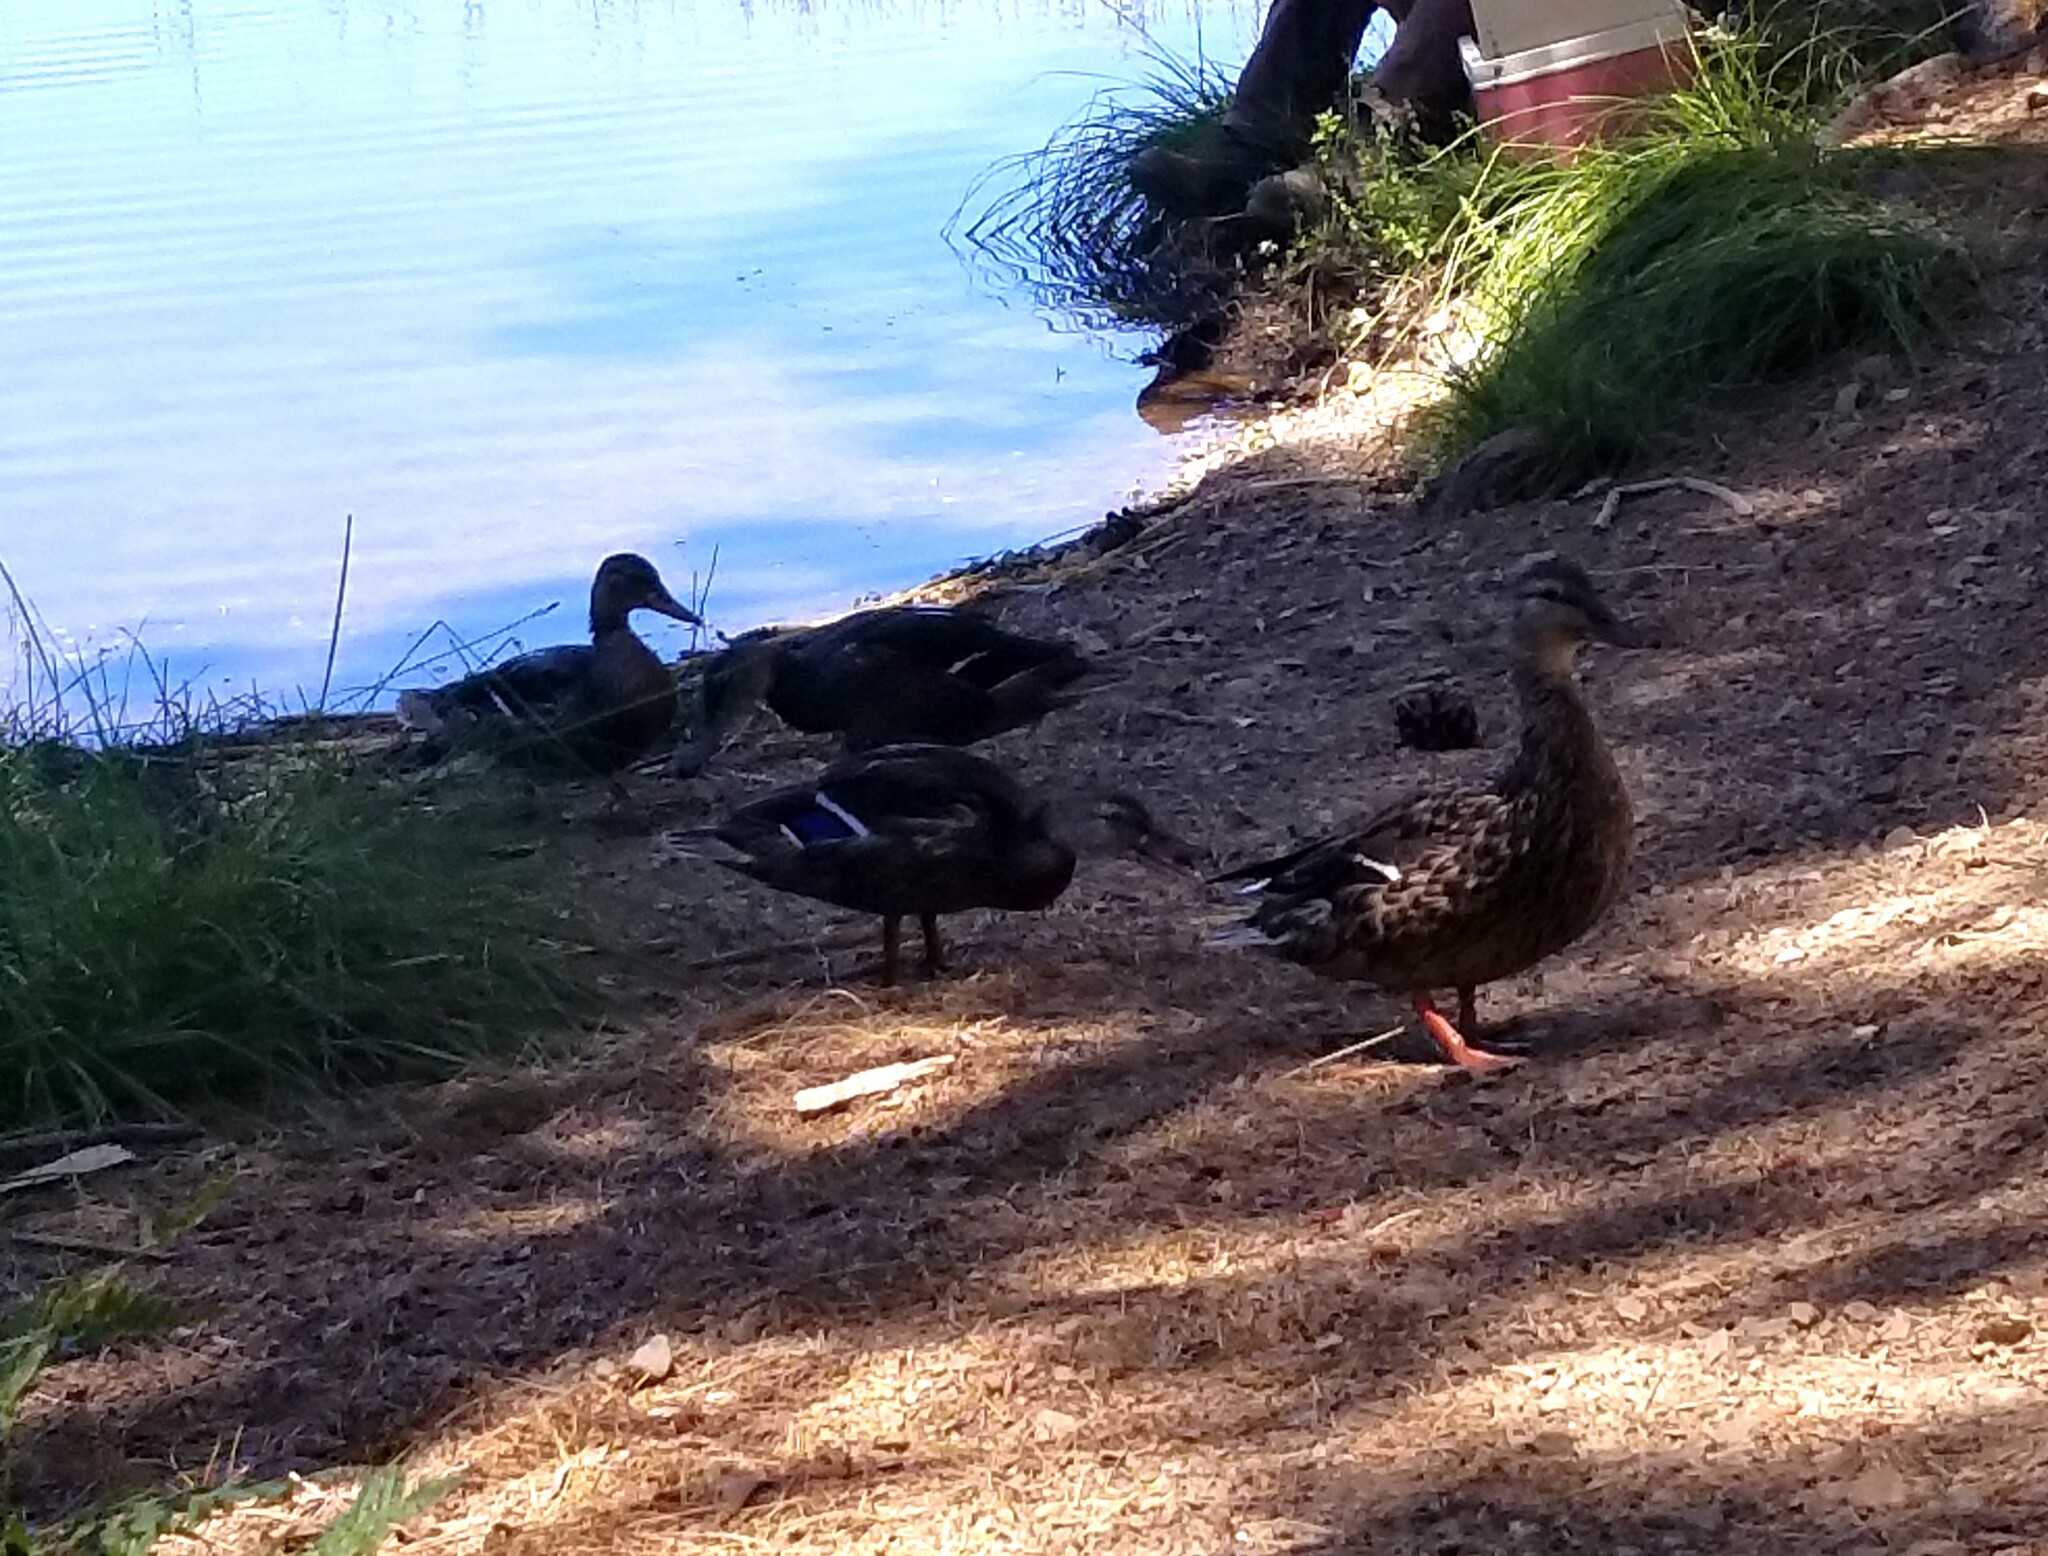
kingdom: Animalia
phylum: Chordata
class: Aves
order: Anseriformes
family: Anatidae
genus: Anas
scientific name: Anas platyrhynchos
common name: Mallard
